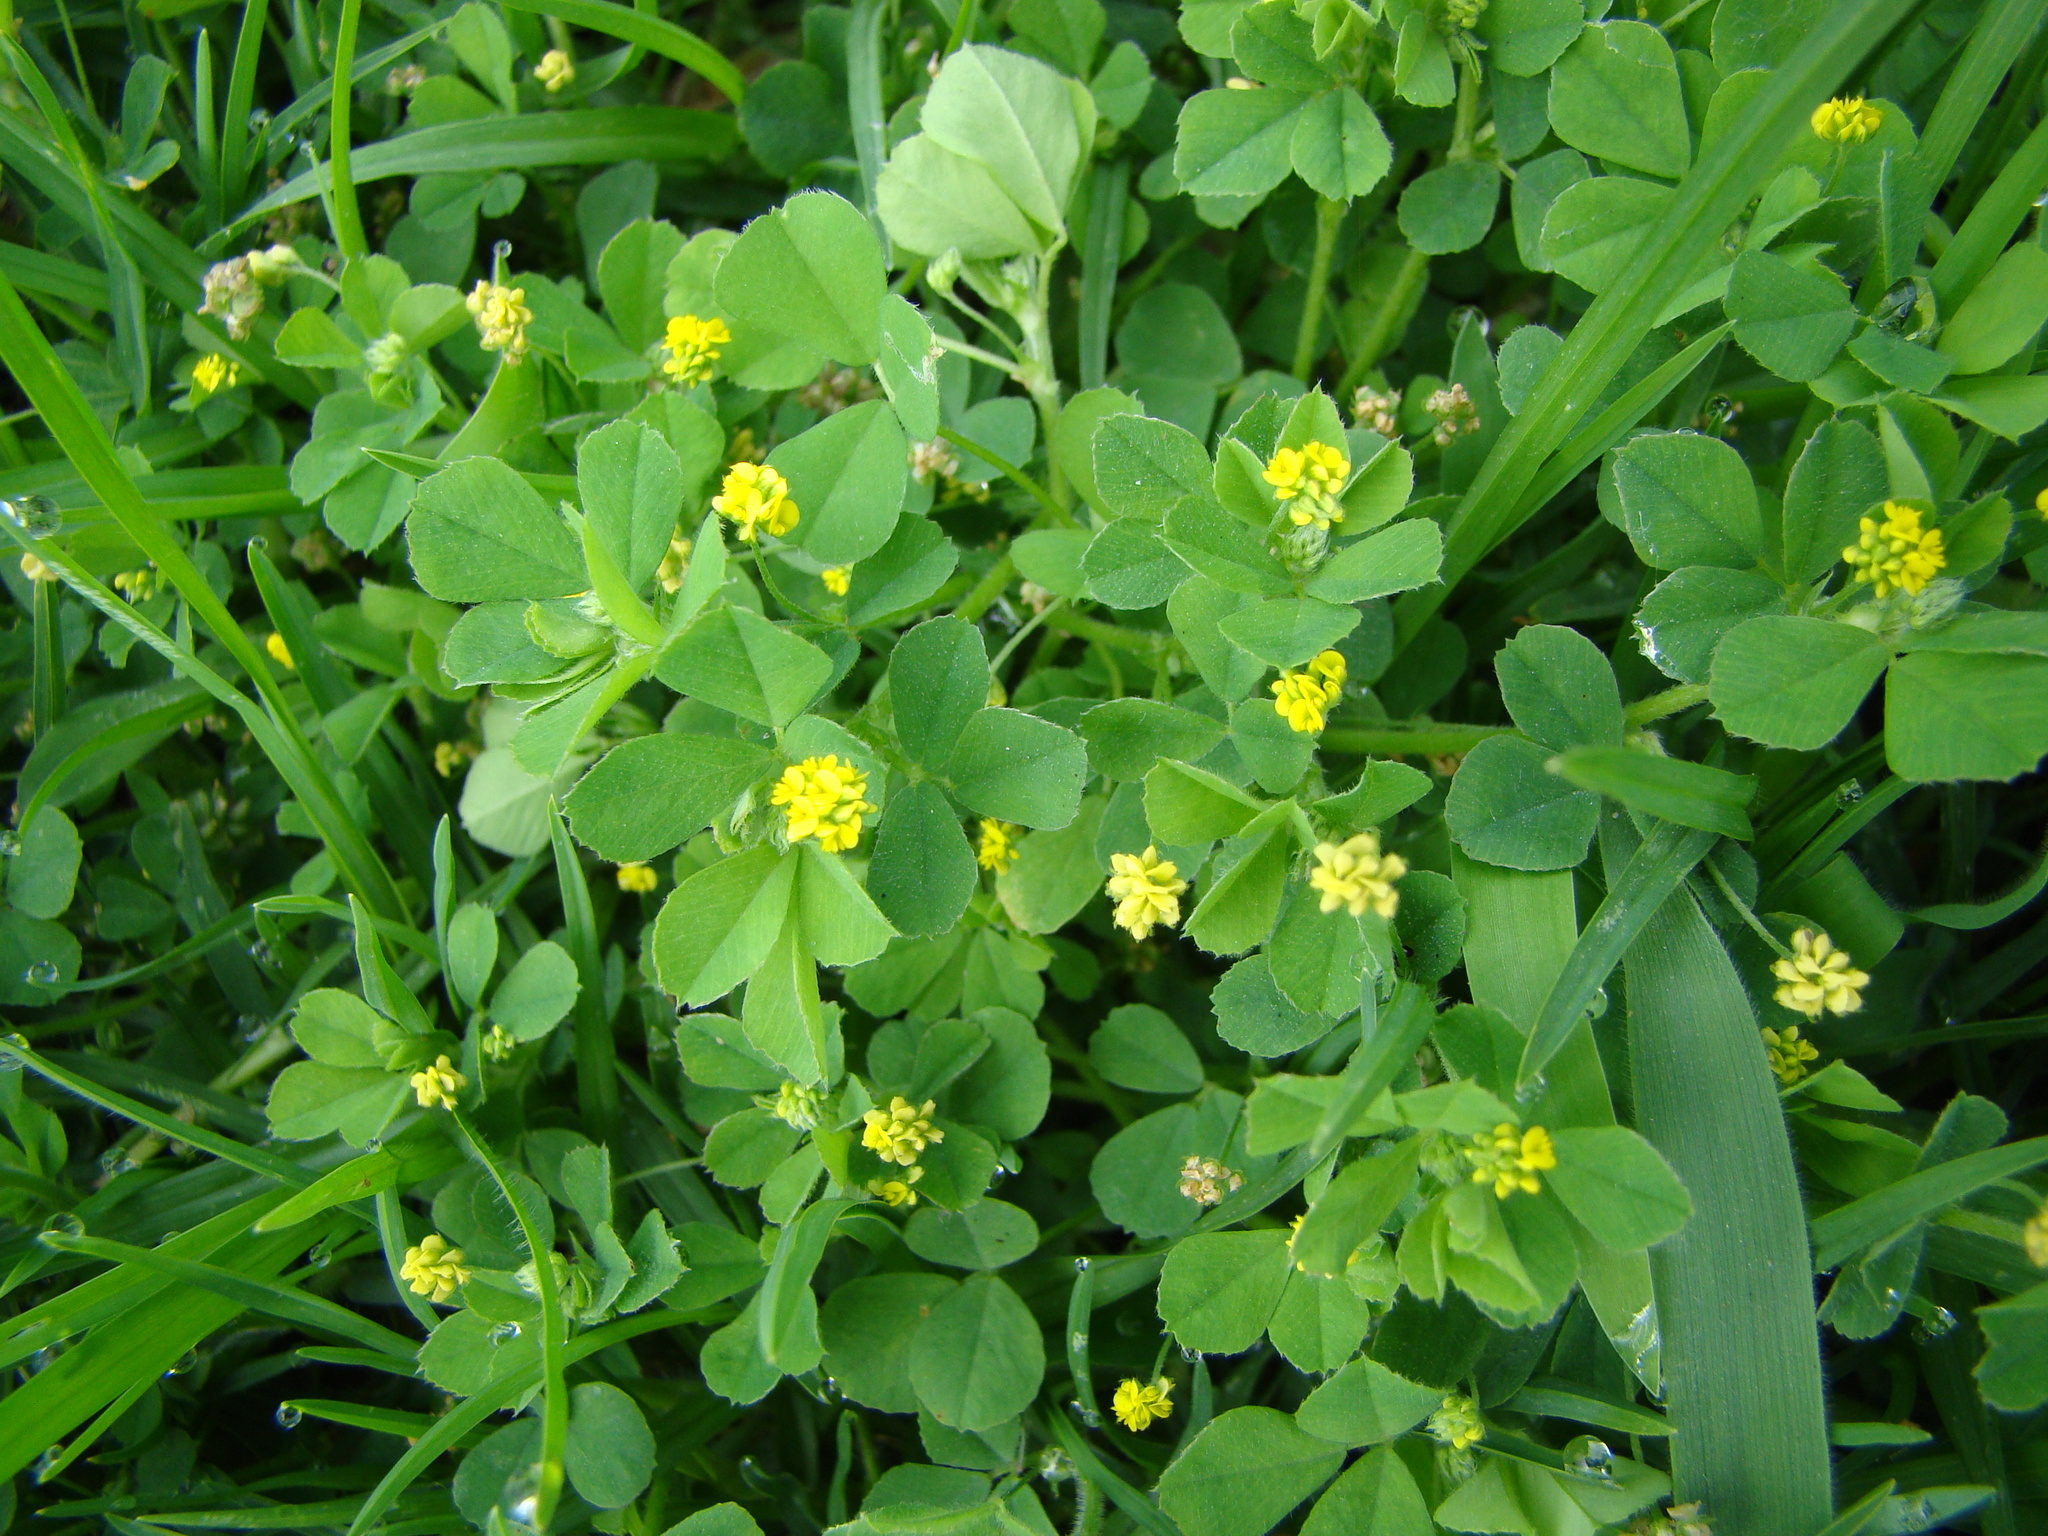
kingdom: Plantae
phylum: Tracheophyta
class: Magnoliopsida
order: Fabales
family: Fabaceae
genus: Medicago
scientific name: Medicago lupulina
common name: Black medick
